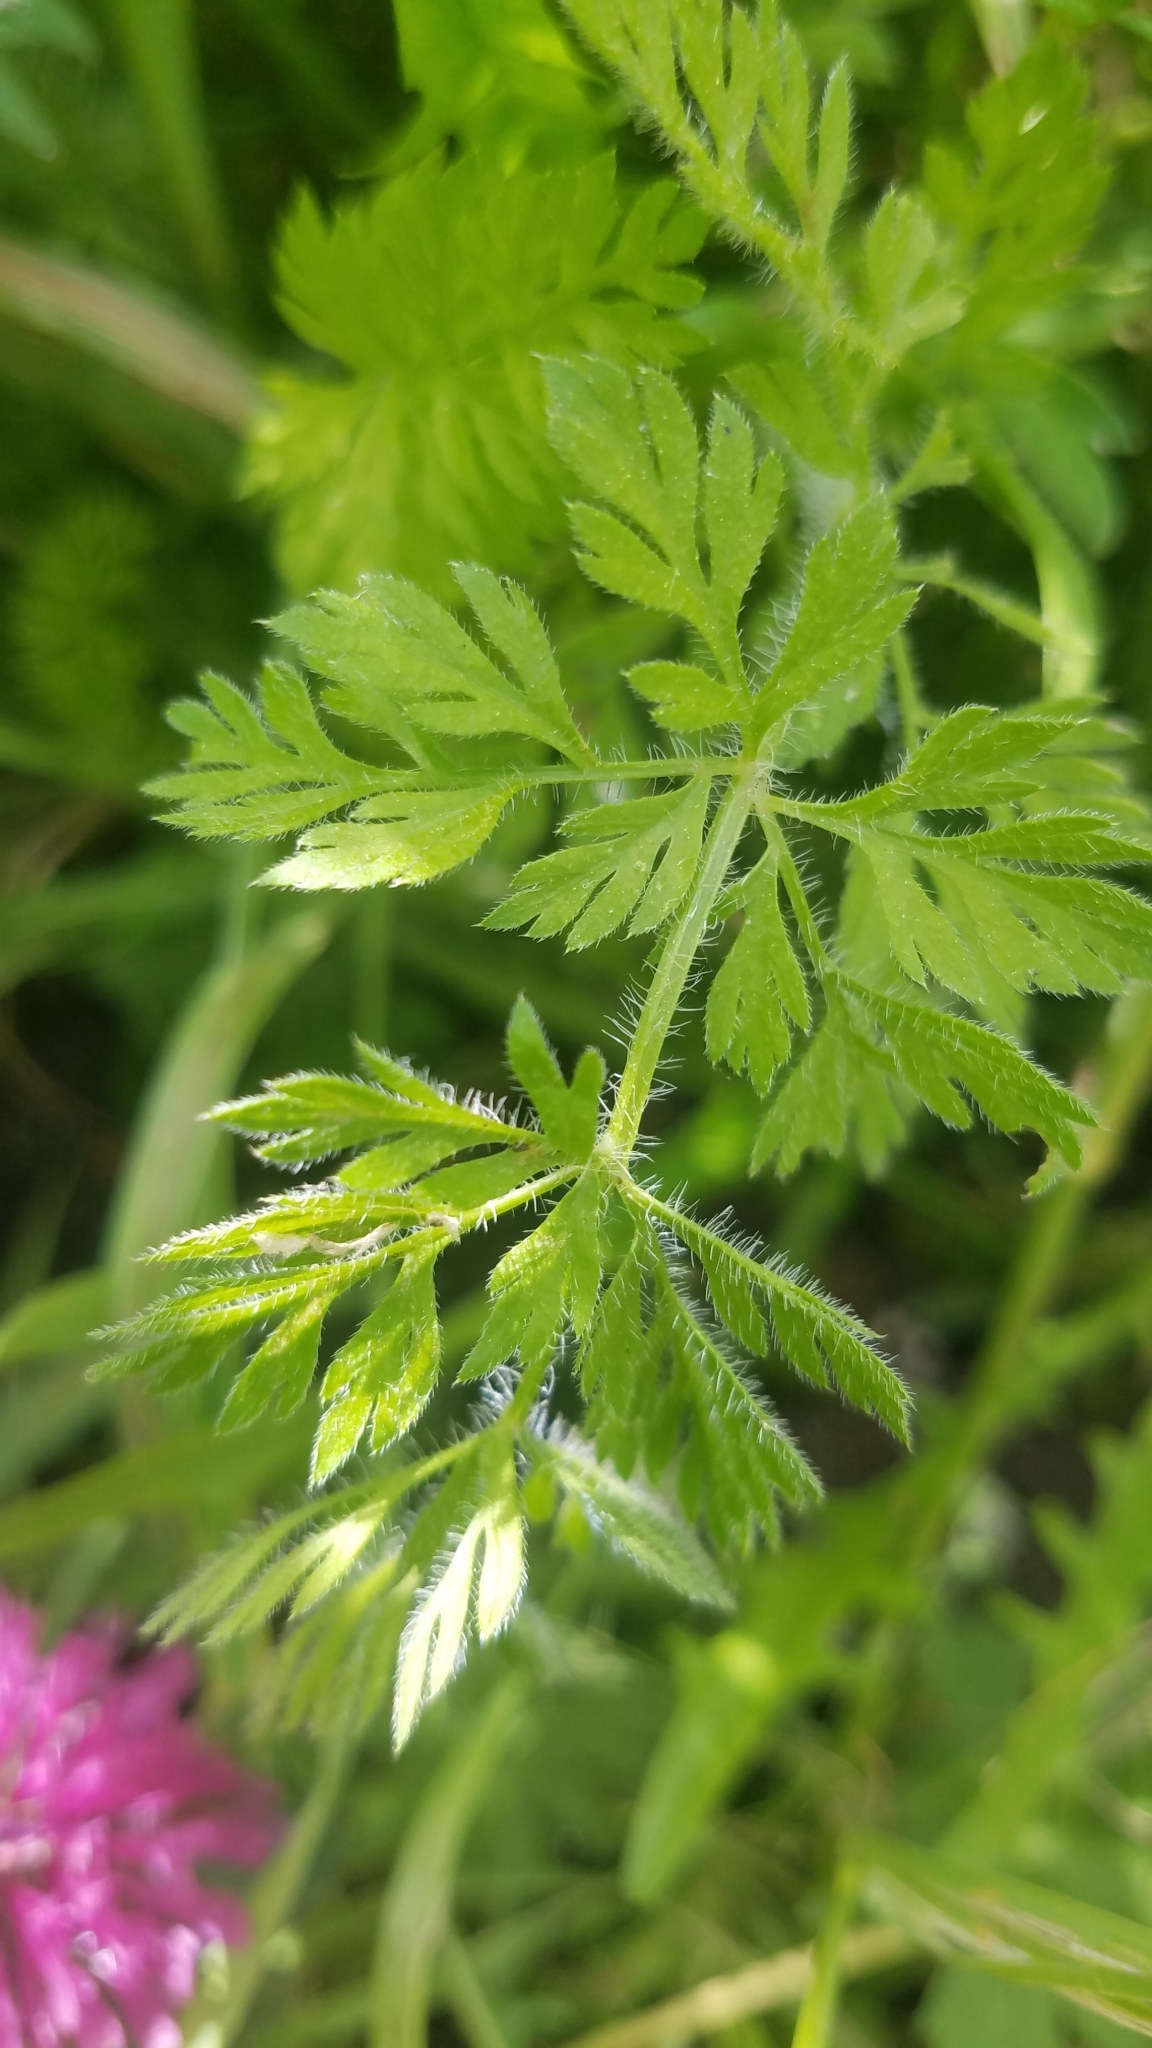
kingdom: Plantae
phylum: Tracheophyta
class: Magnoliopsida
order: Apiales
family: Apiaceae
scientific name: Apiaceae
